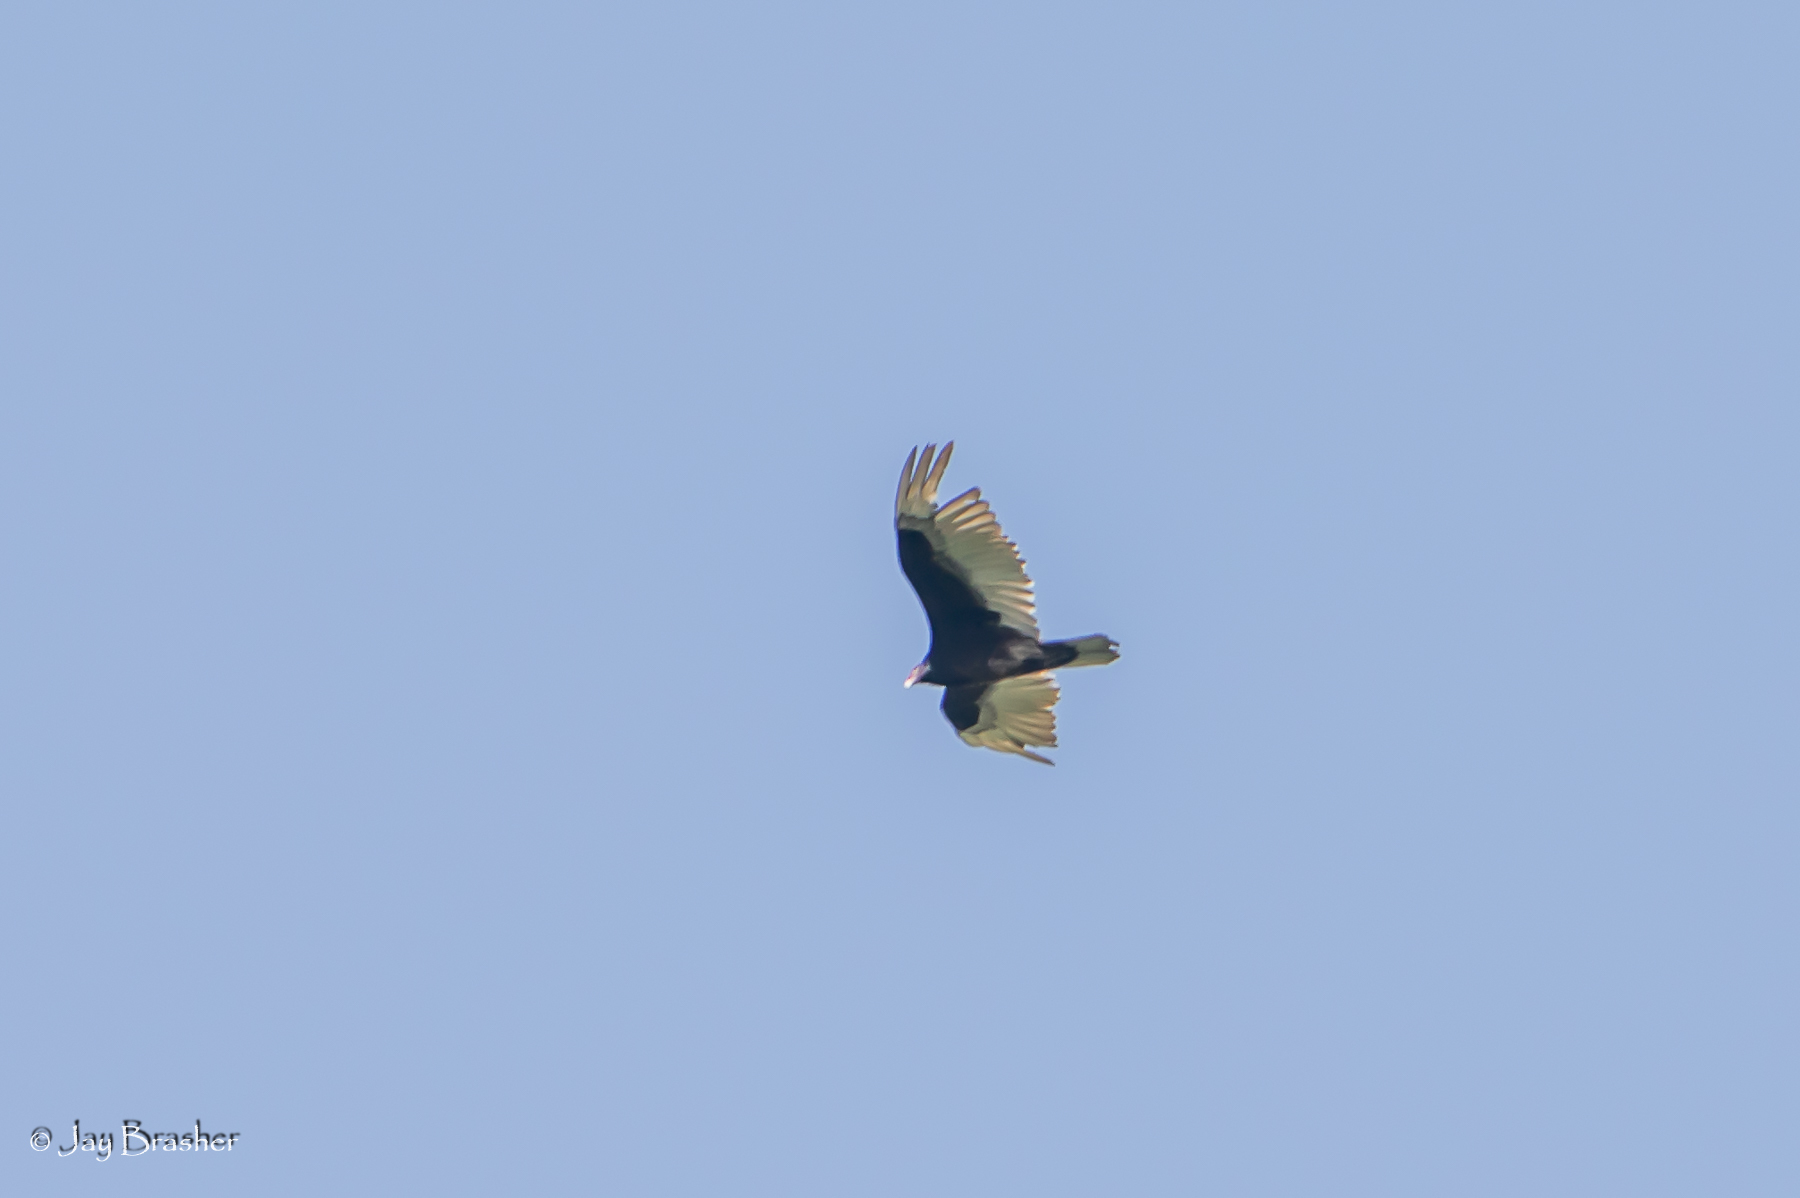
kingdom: Animalia
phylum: Chordata
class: Aves
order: Accipitriformes
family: Cathartidae
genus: Cathartes
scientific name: Cathartes aura
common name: Turkey vulture
